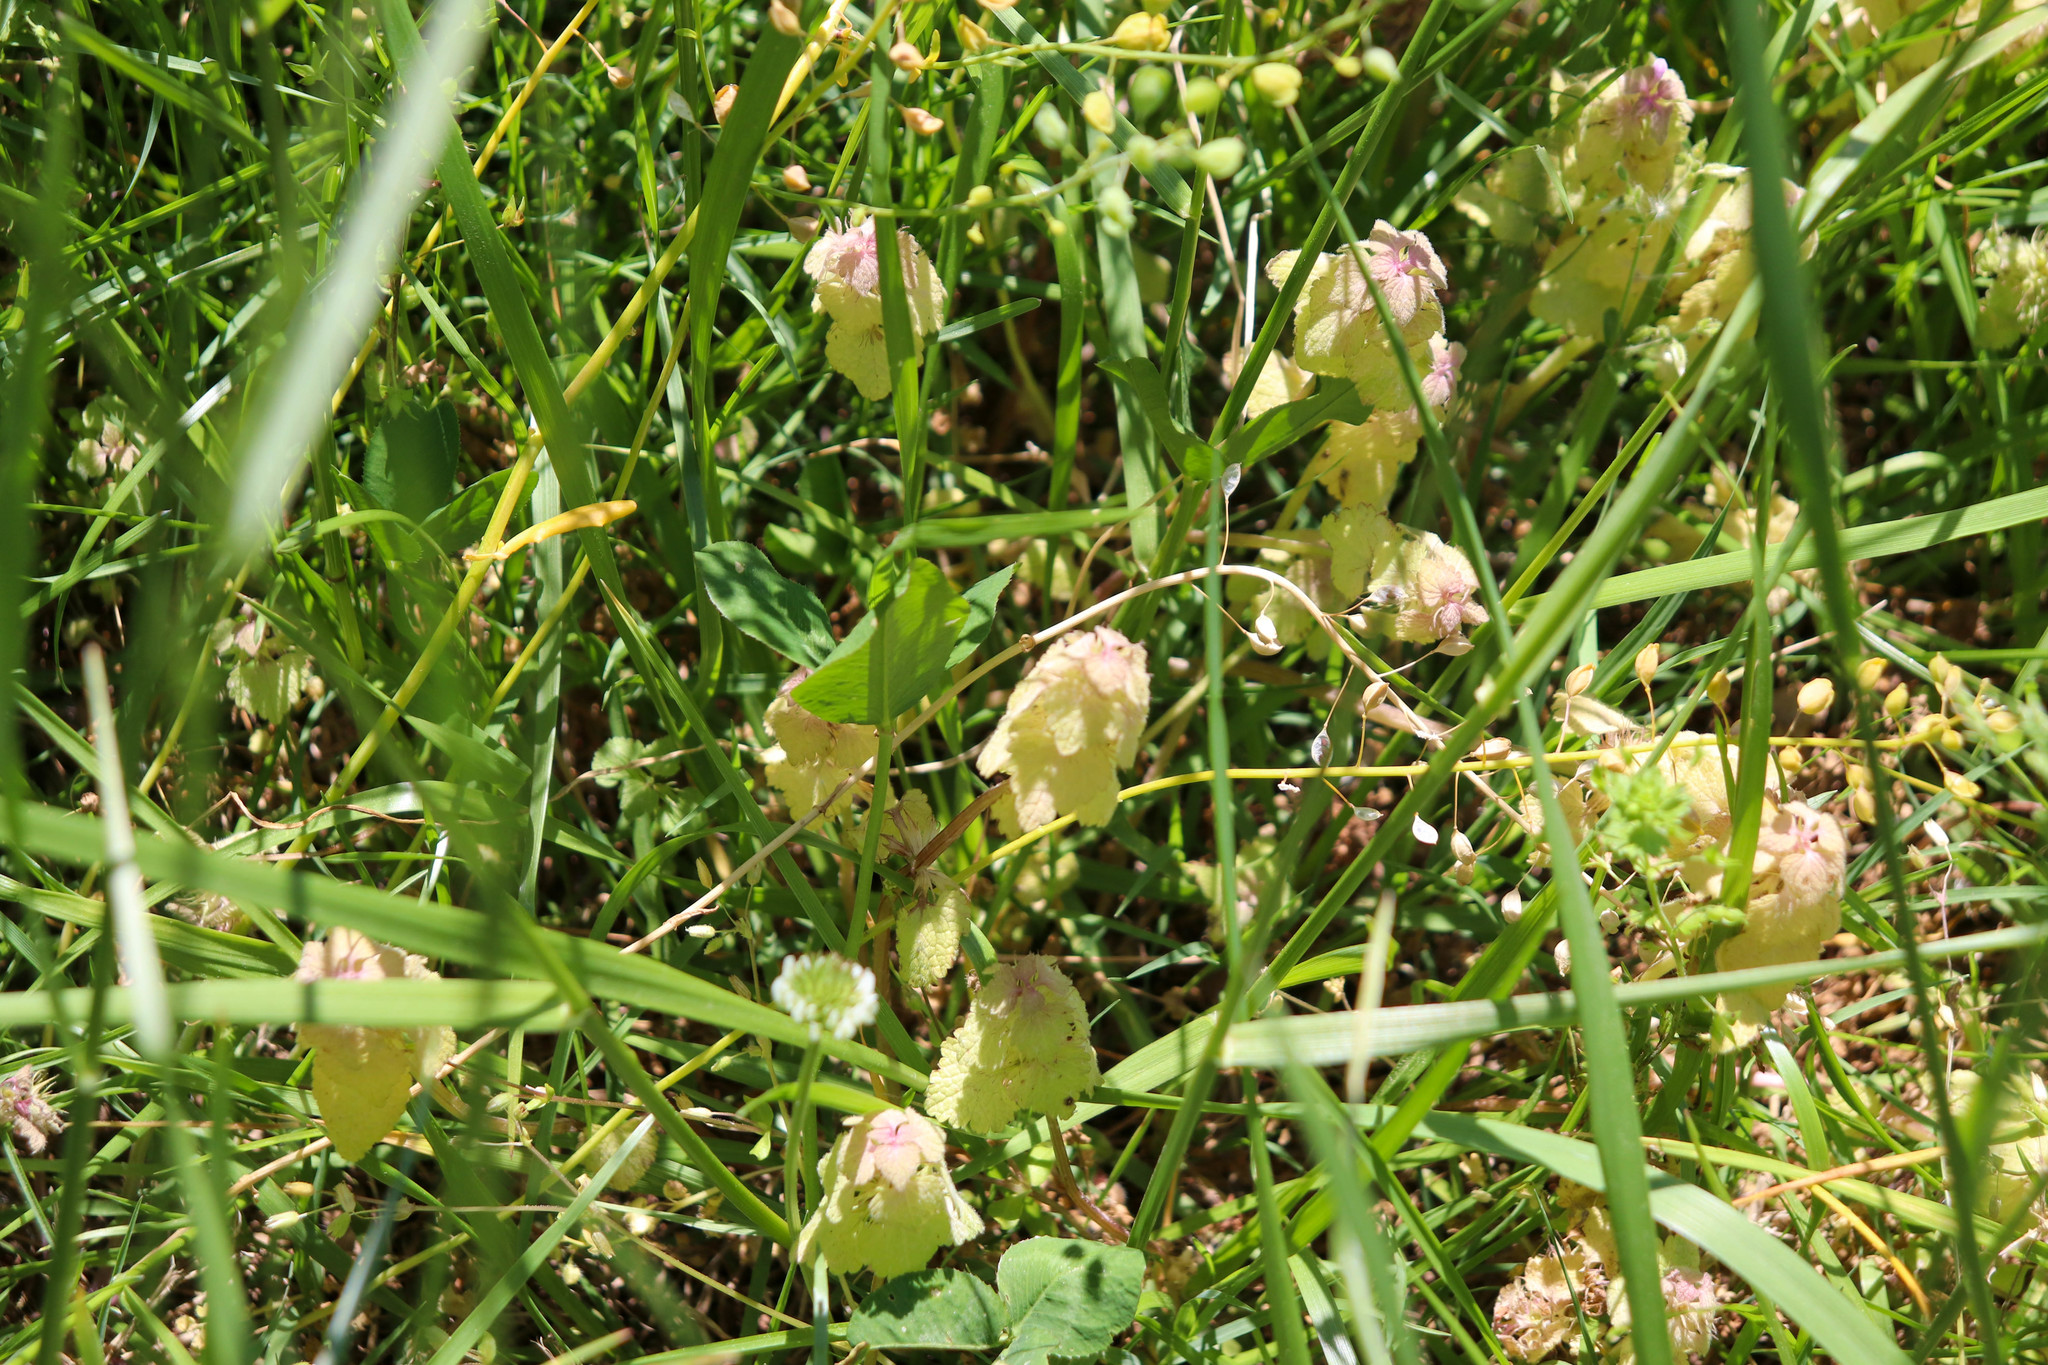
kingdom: Plantae
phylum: Tracheophyta
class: Magnoliopsida
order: Lamiales
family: Lamiaceae
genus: Lamium
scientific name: Lamium purpureum
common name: Red dead-nettle
